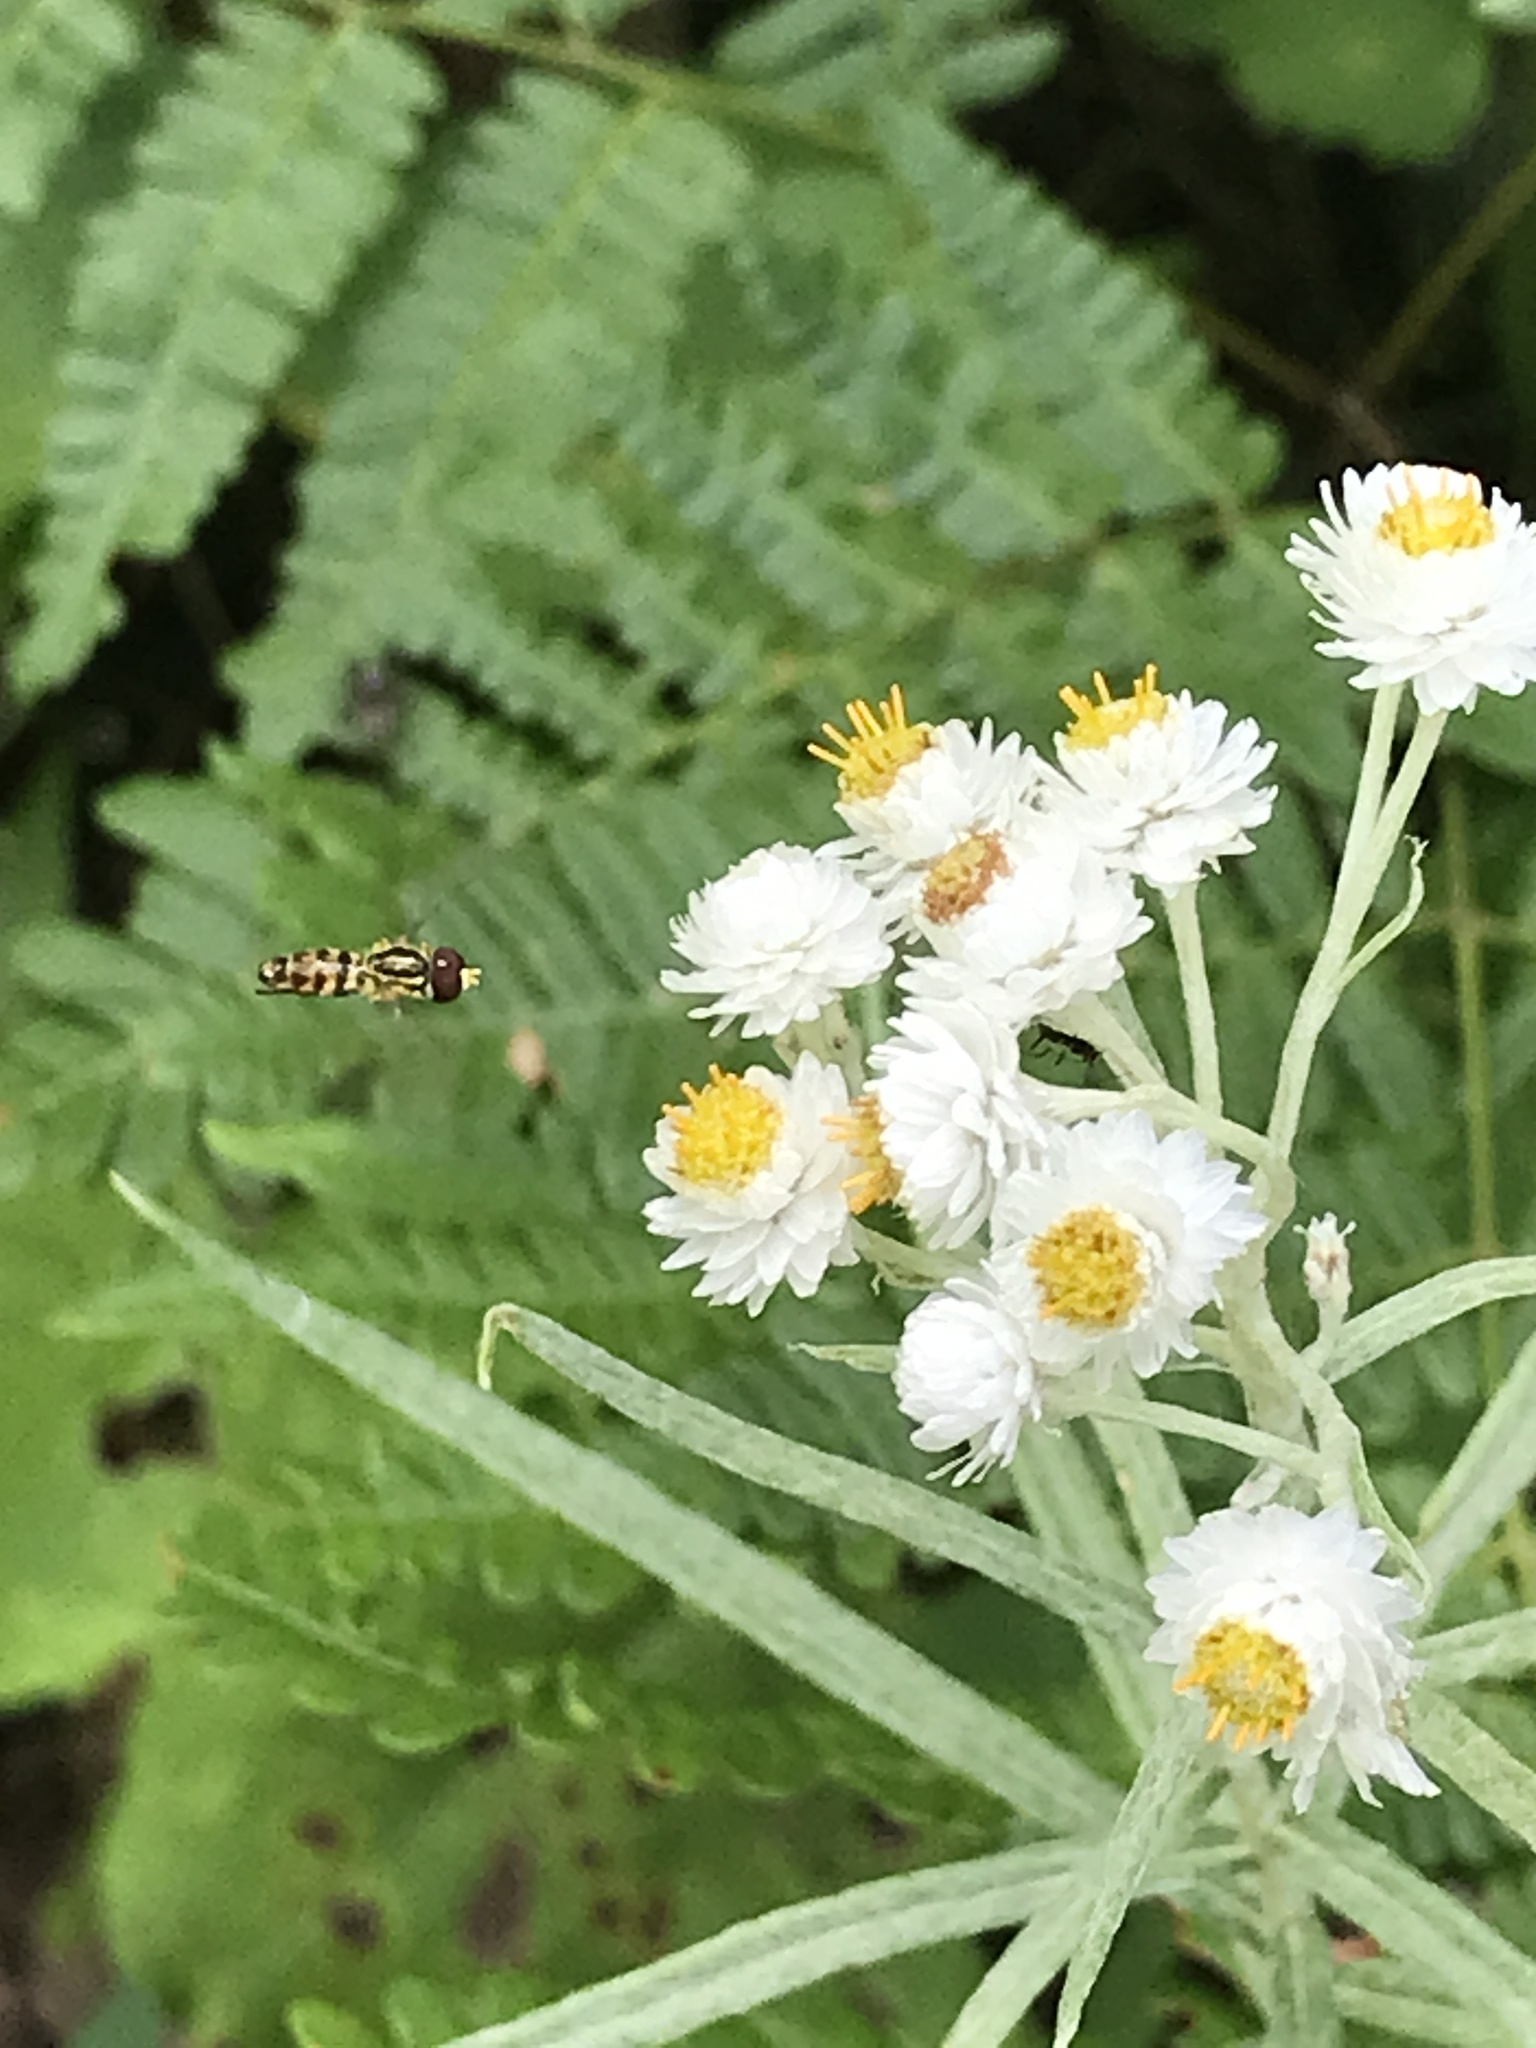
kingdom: Animalia
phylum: Arthropoda
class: Insecta
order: Diptera
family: Syrphidae
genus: Toxomerus
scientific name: Toxomerus geminatus
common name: Eastern calligrapher
